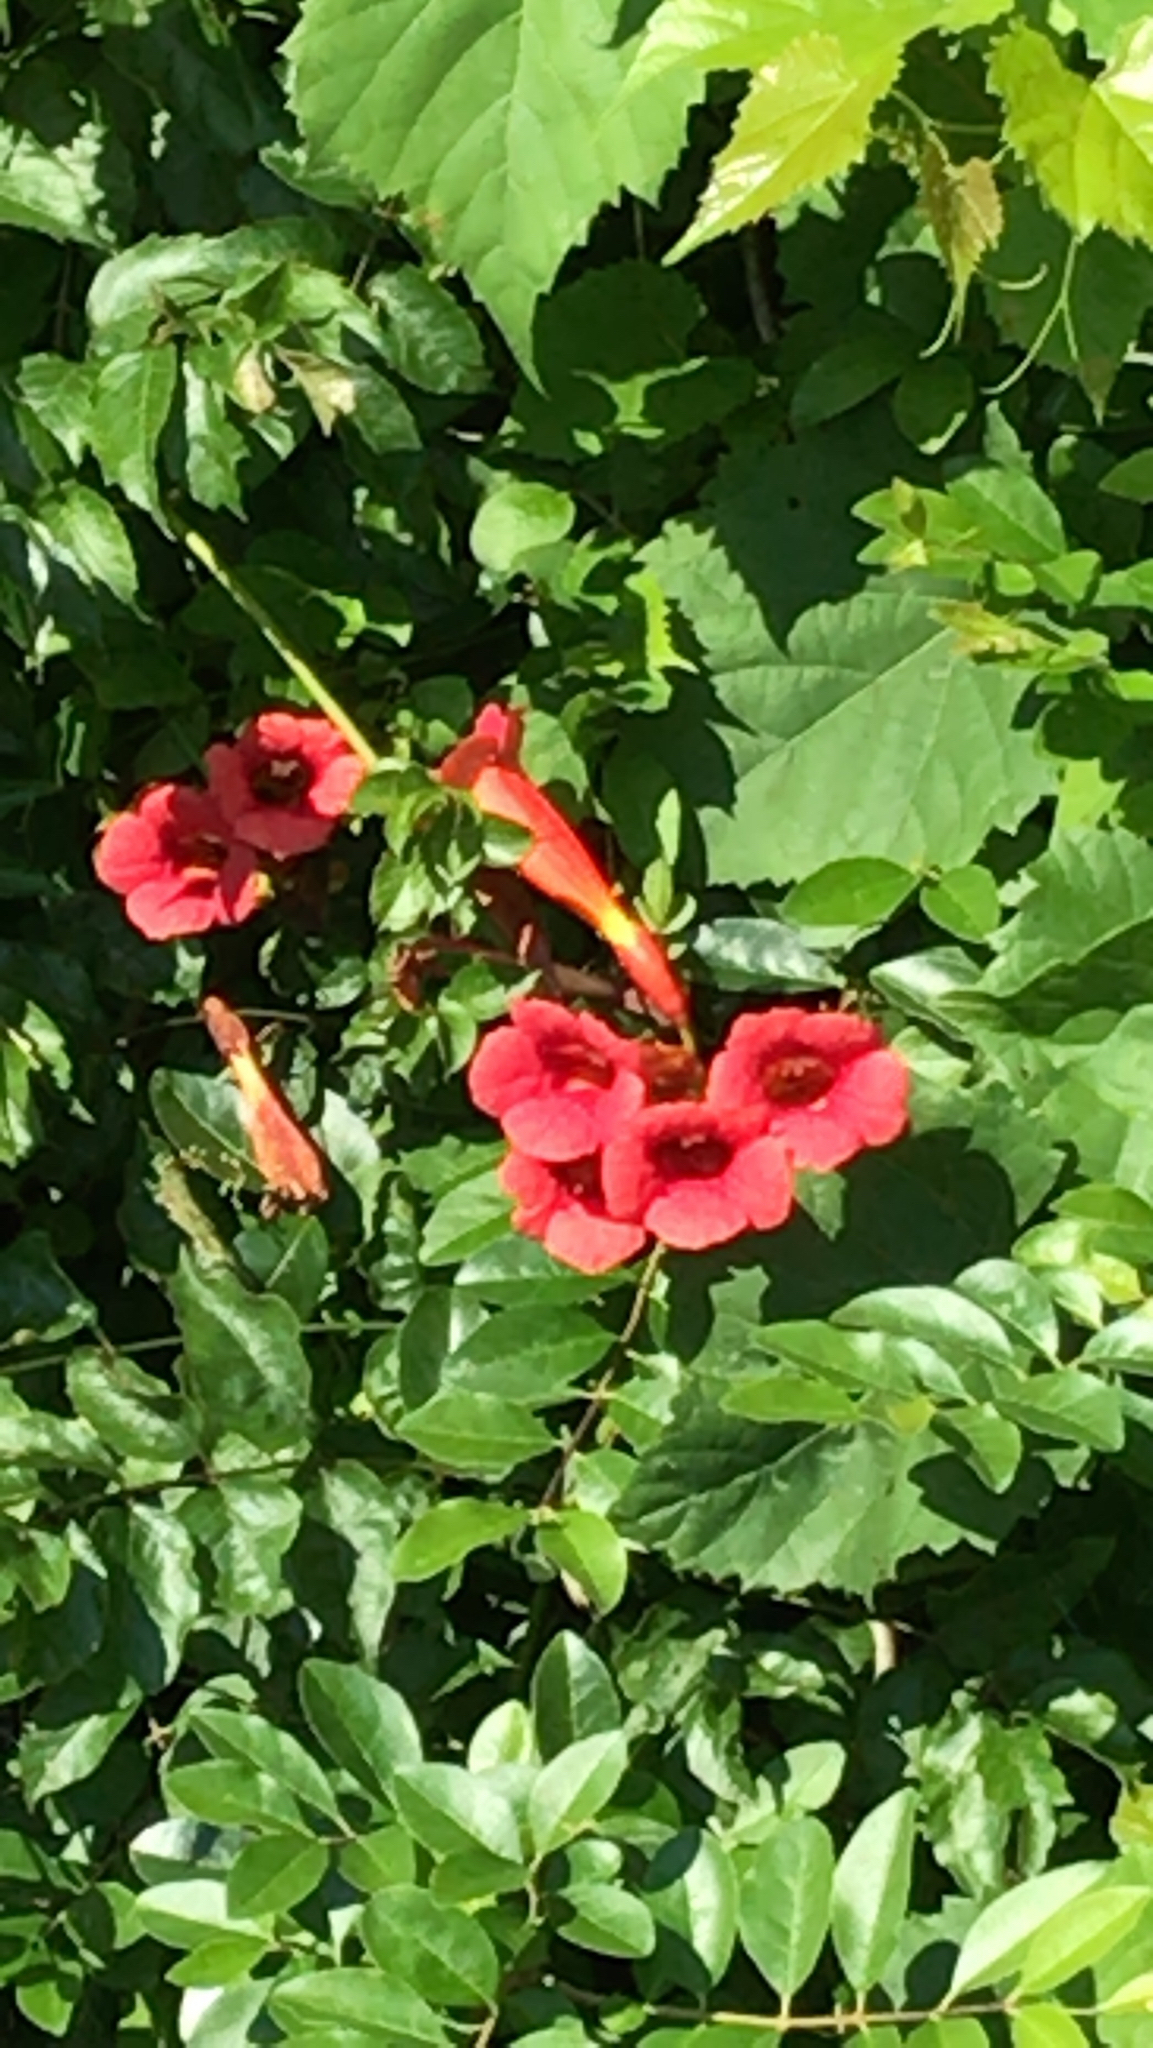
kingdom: Plantae
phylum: Tracheophyta
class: Magnoliopsida
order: Lamiales
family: Bignoniaceae
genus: Campsis
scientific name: Campsis radicans
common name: Trumpet-creeper
